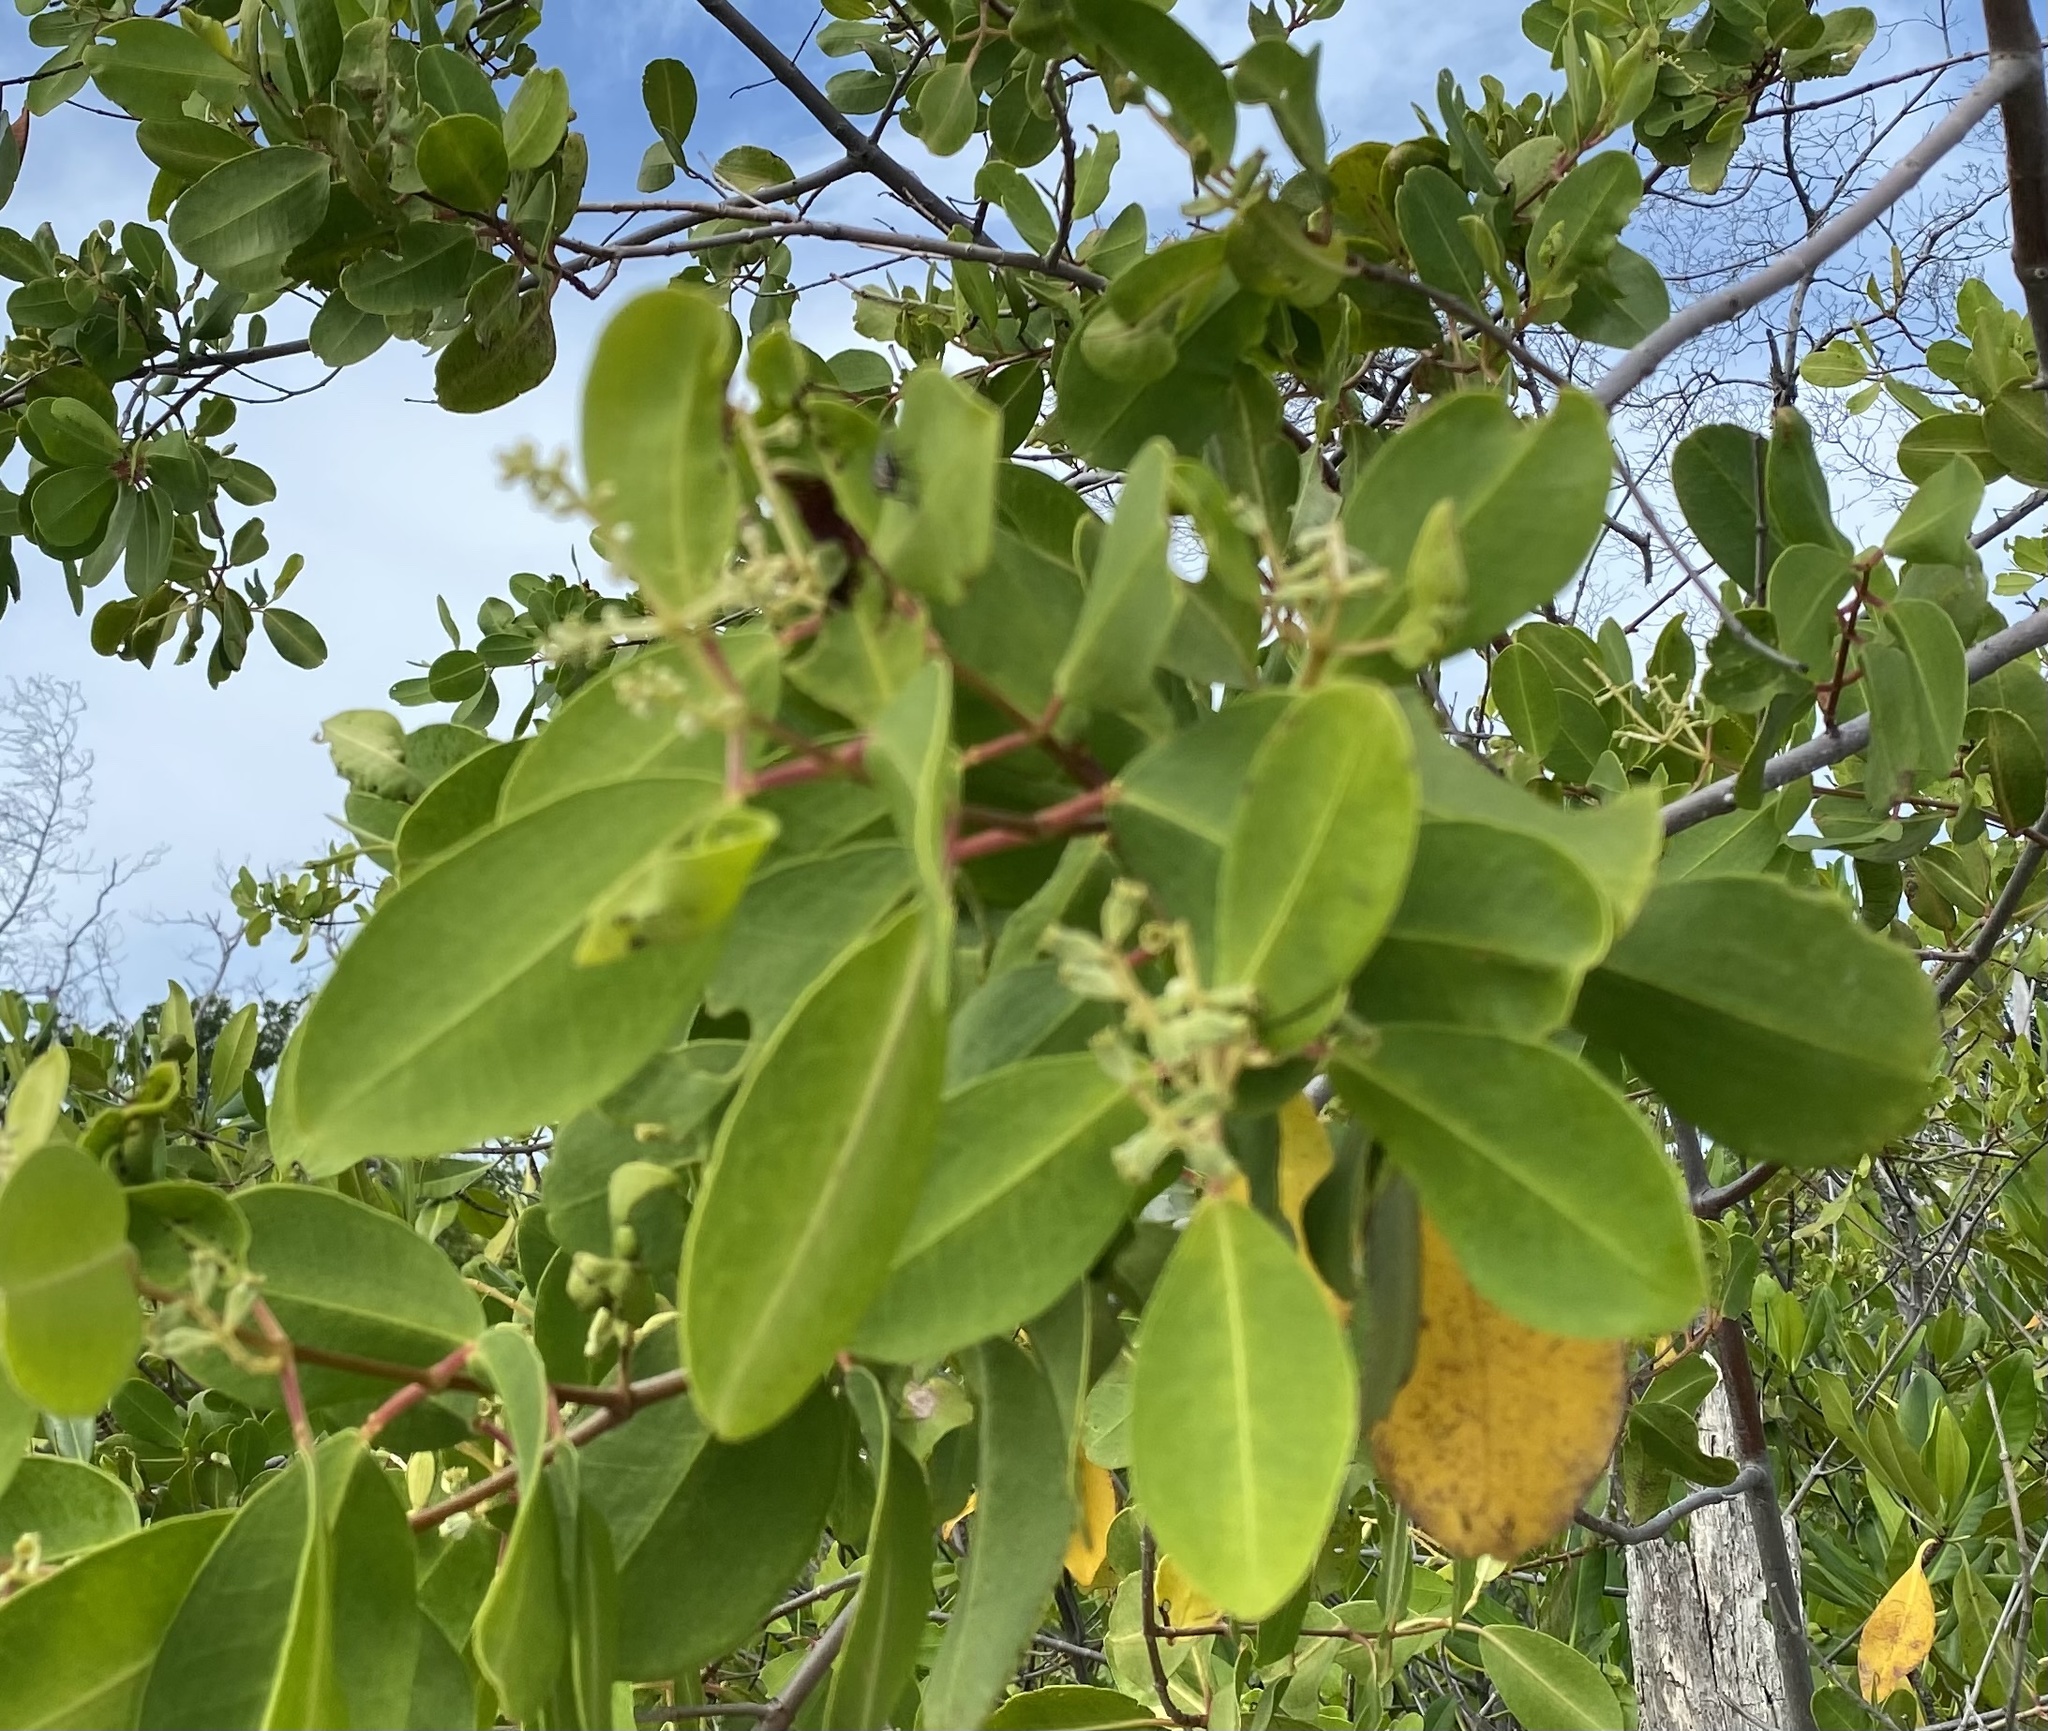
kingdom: Plantae
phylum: Tracheophyta
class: Magnoliopsida
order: Myrtales
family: Combretaceae
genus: Laguncularia
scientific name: Laguncularia racemosa
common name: White mangrove
